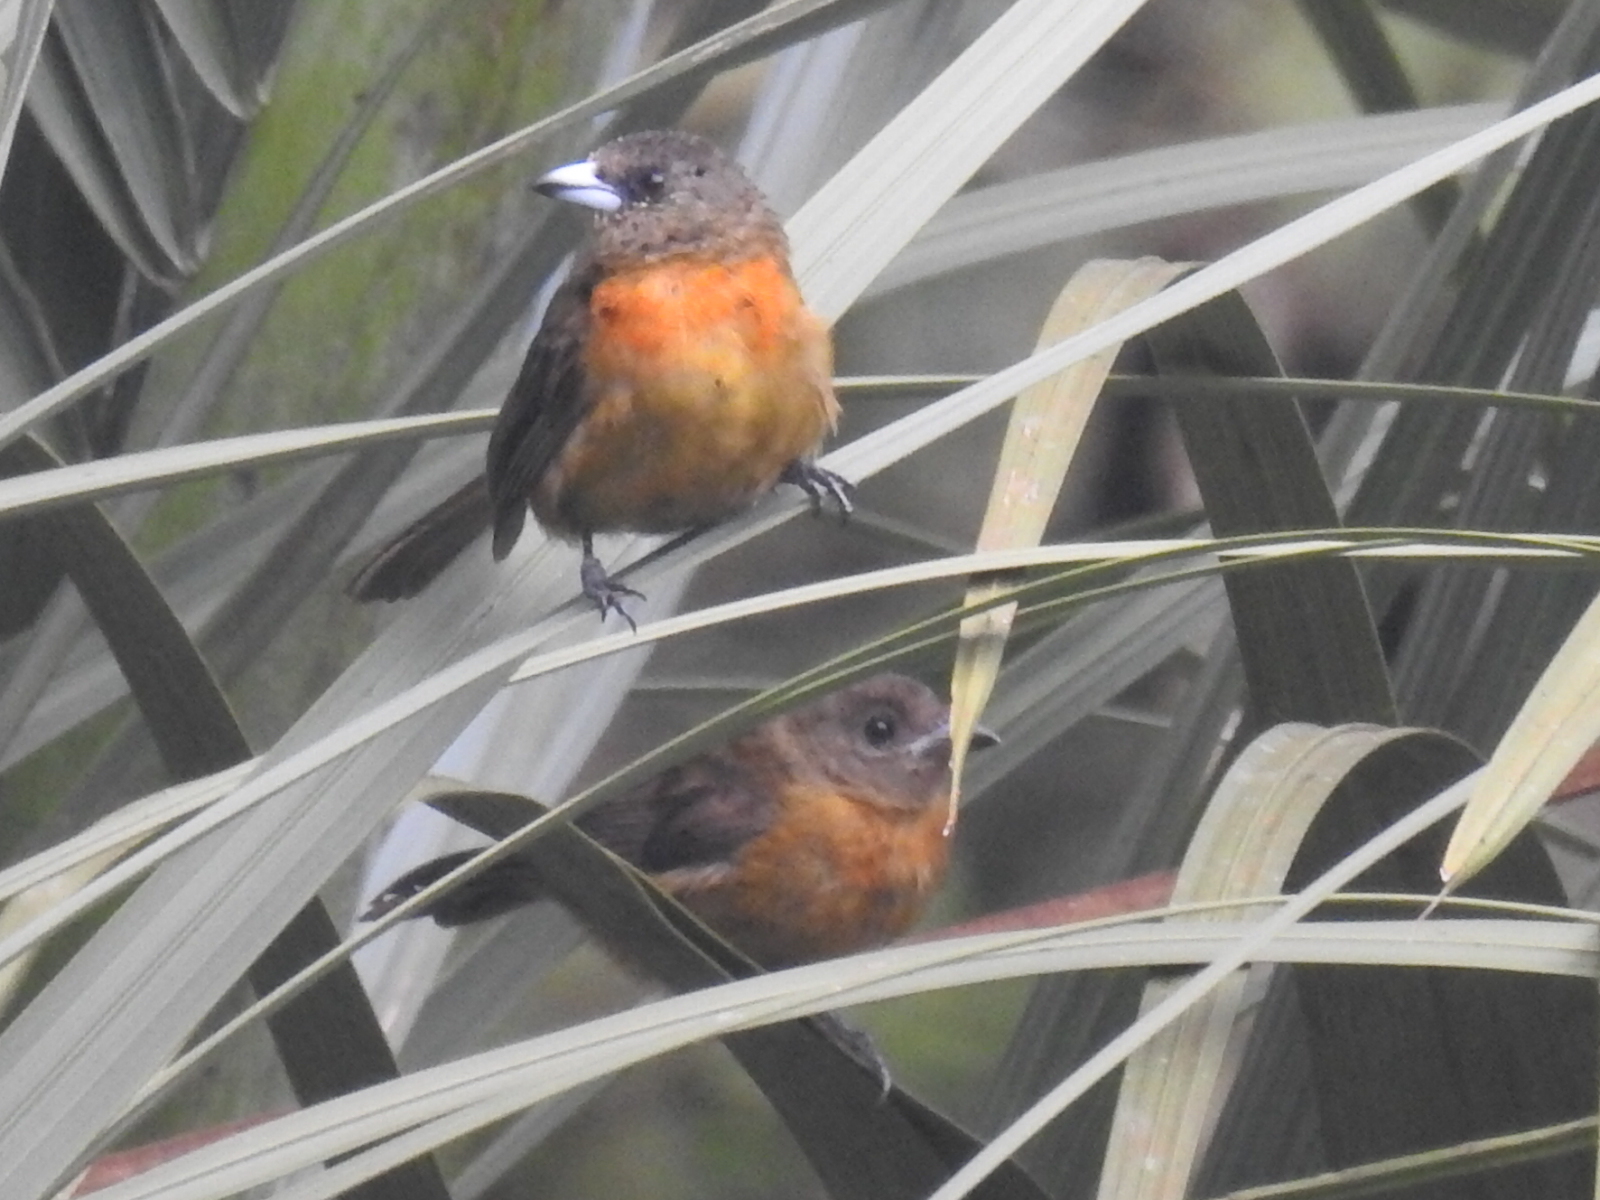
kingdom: Animalia
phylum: Chordata
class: Aves
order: Passeriformes
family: Thraupidae
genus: Ramphocelus
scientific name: Ramphocelus passerinii
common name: Passerini's tanager
